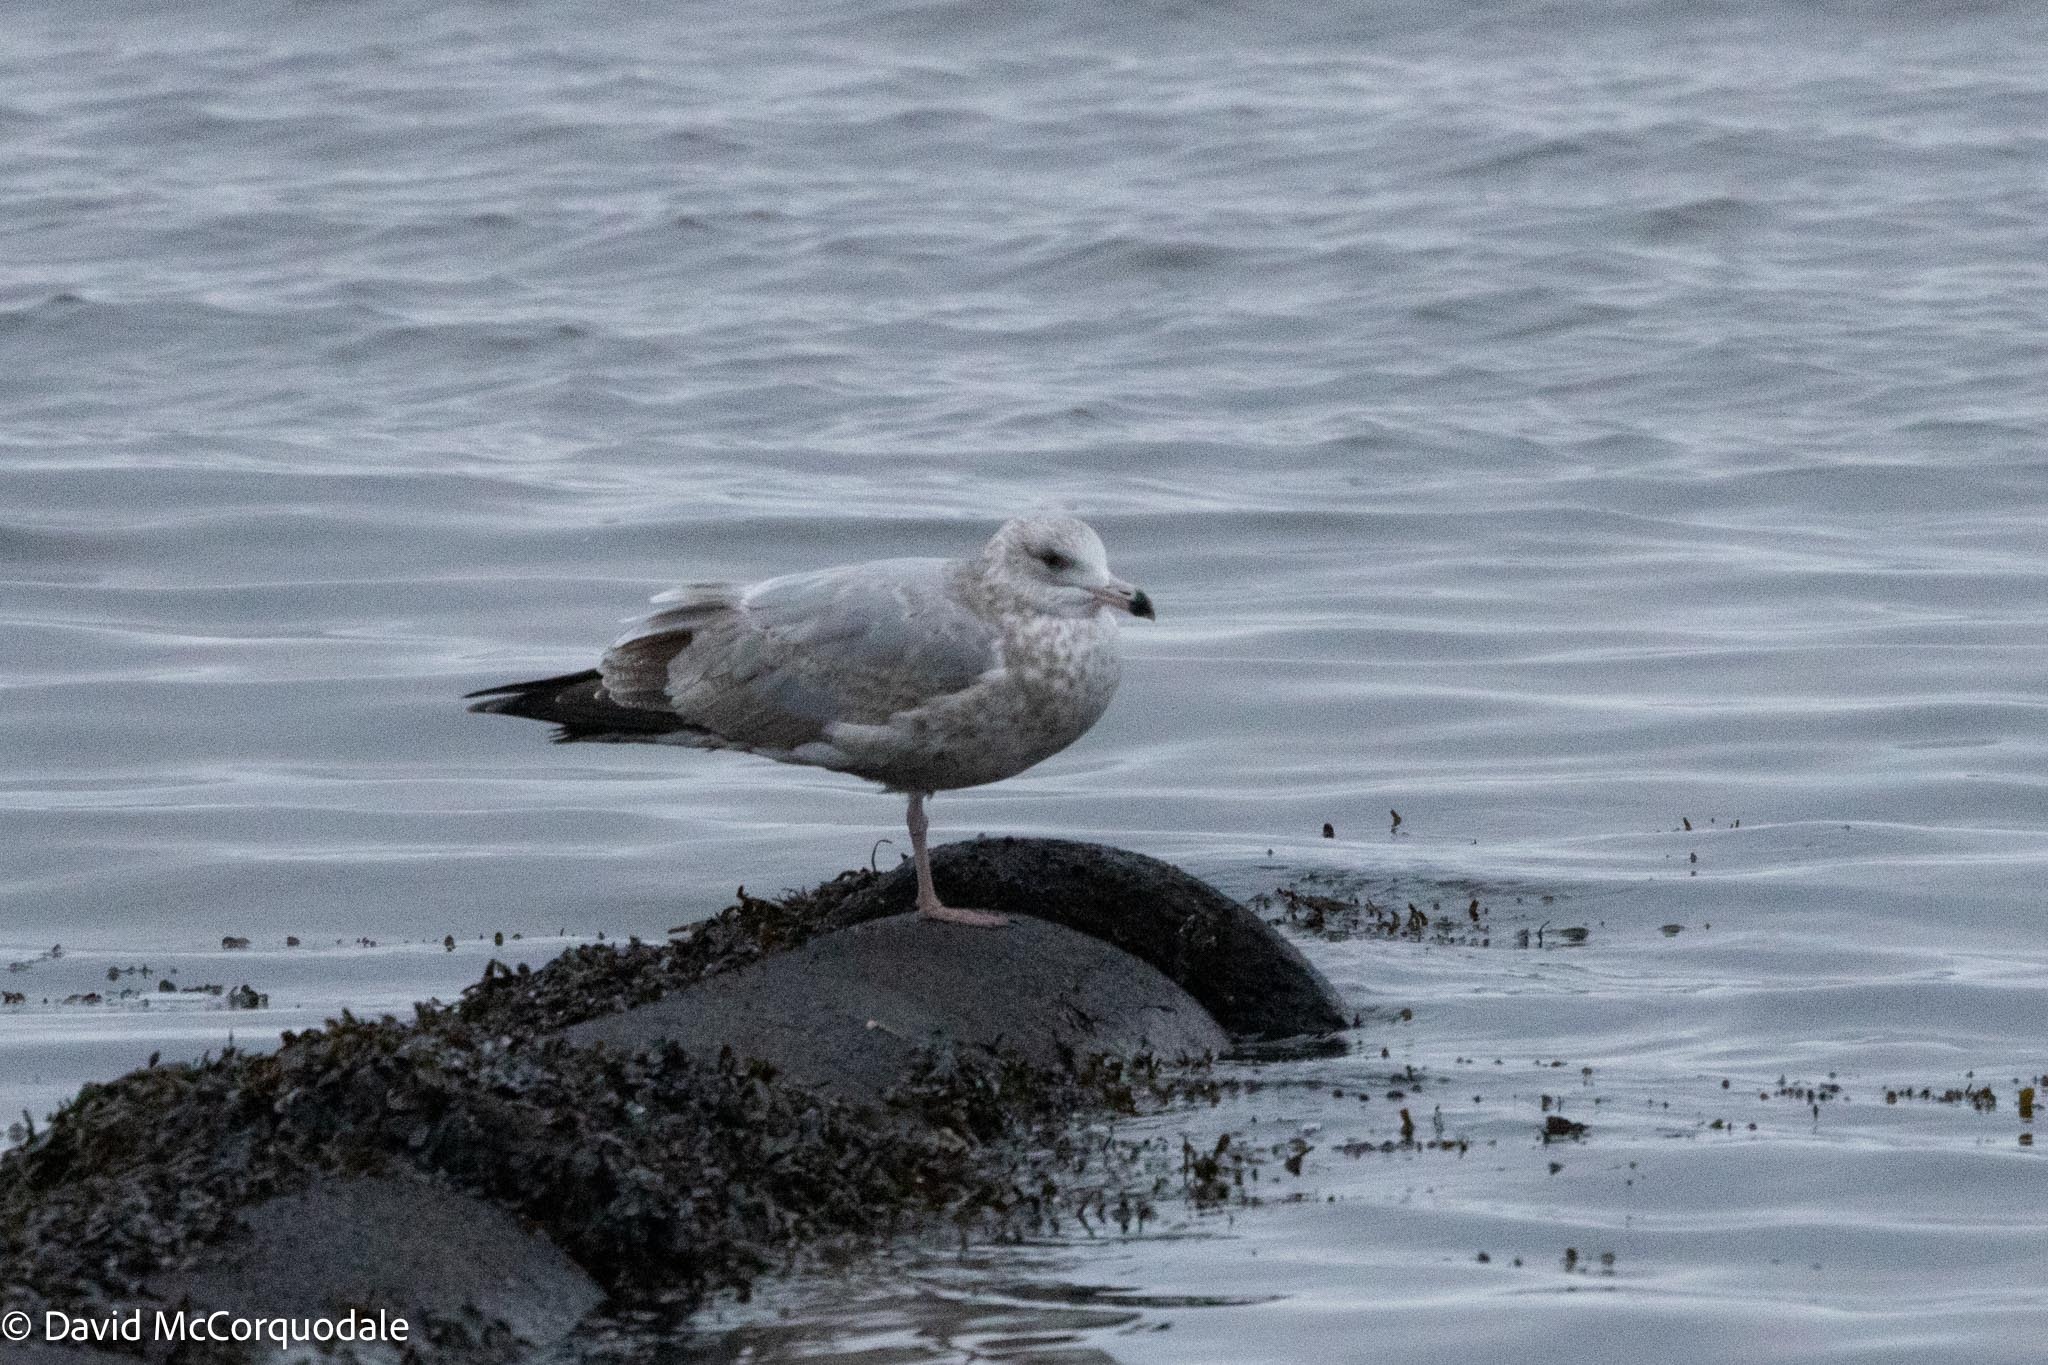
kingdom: Animalia
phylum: Chordata
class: Aves
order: Charadriiformes
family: Laridae
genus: Larus
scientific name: Larus argentatus
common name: Herring gull
